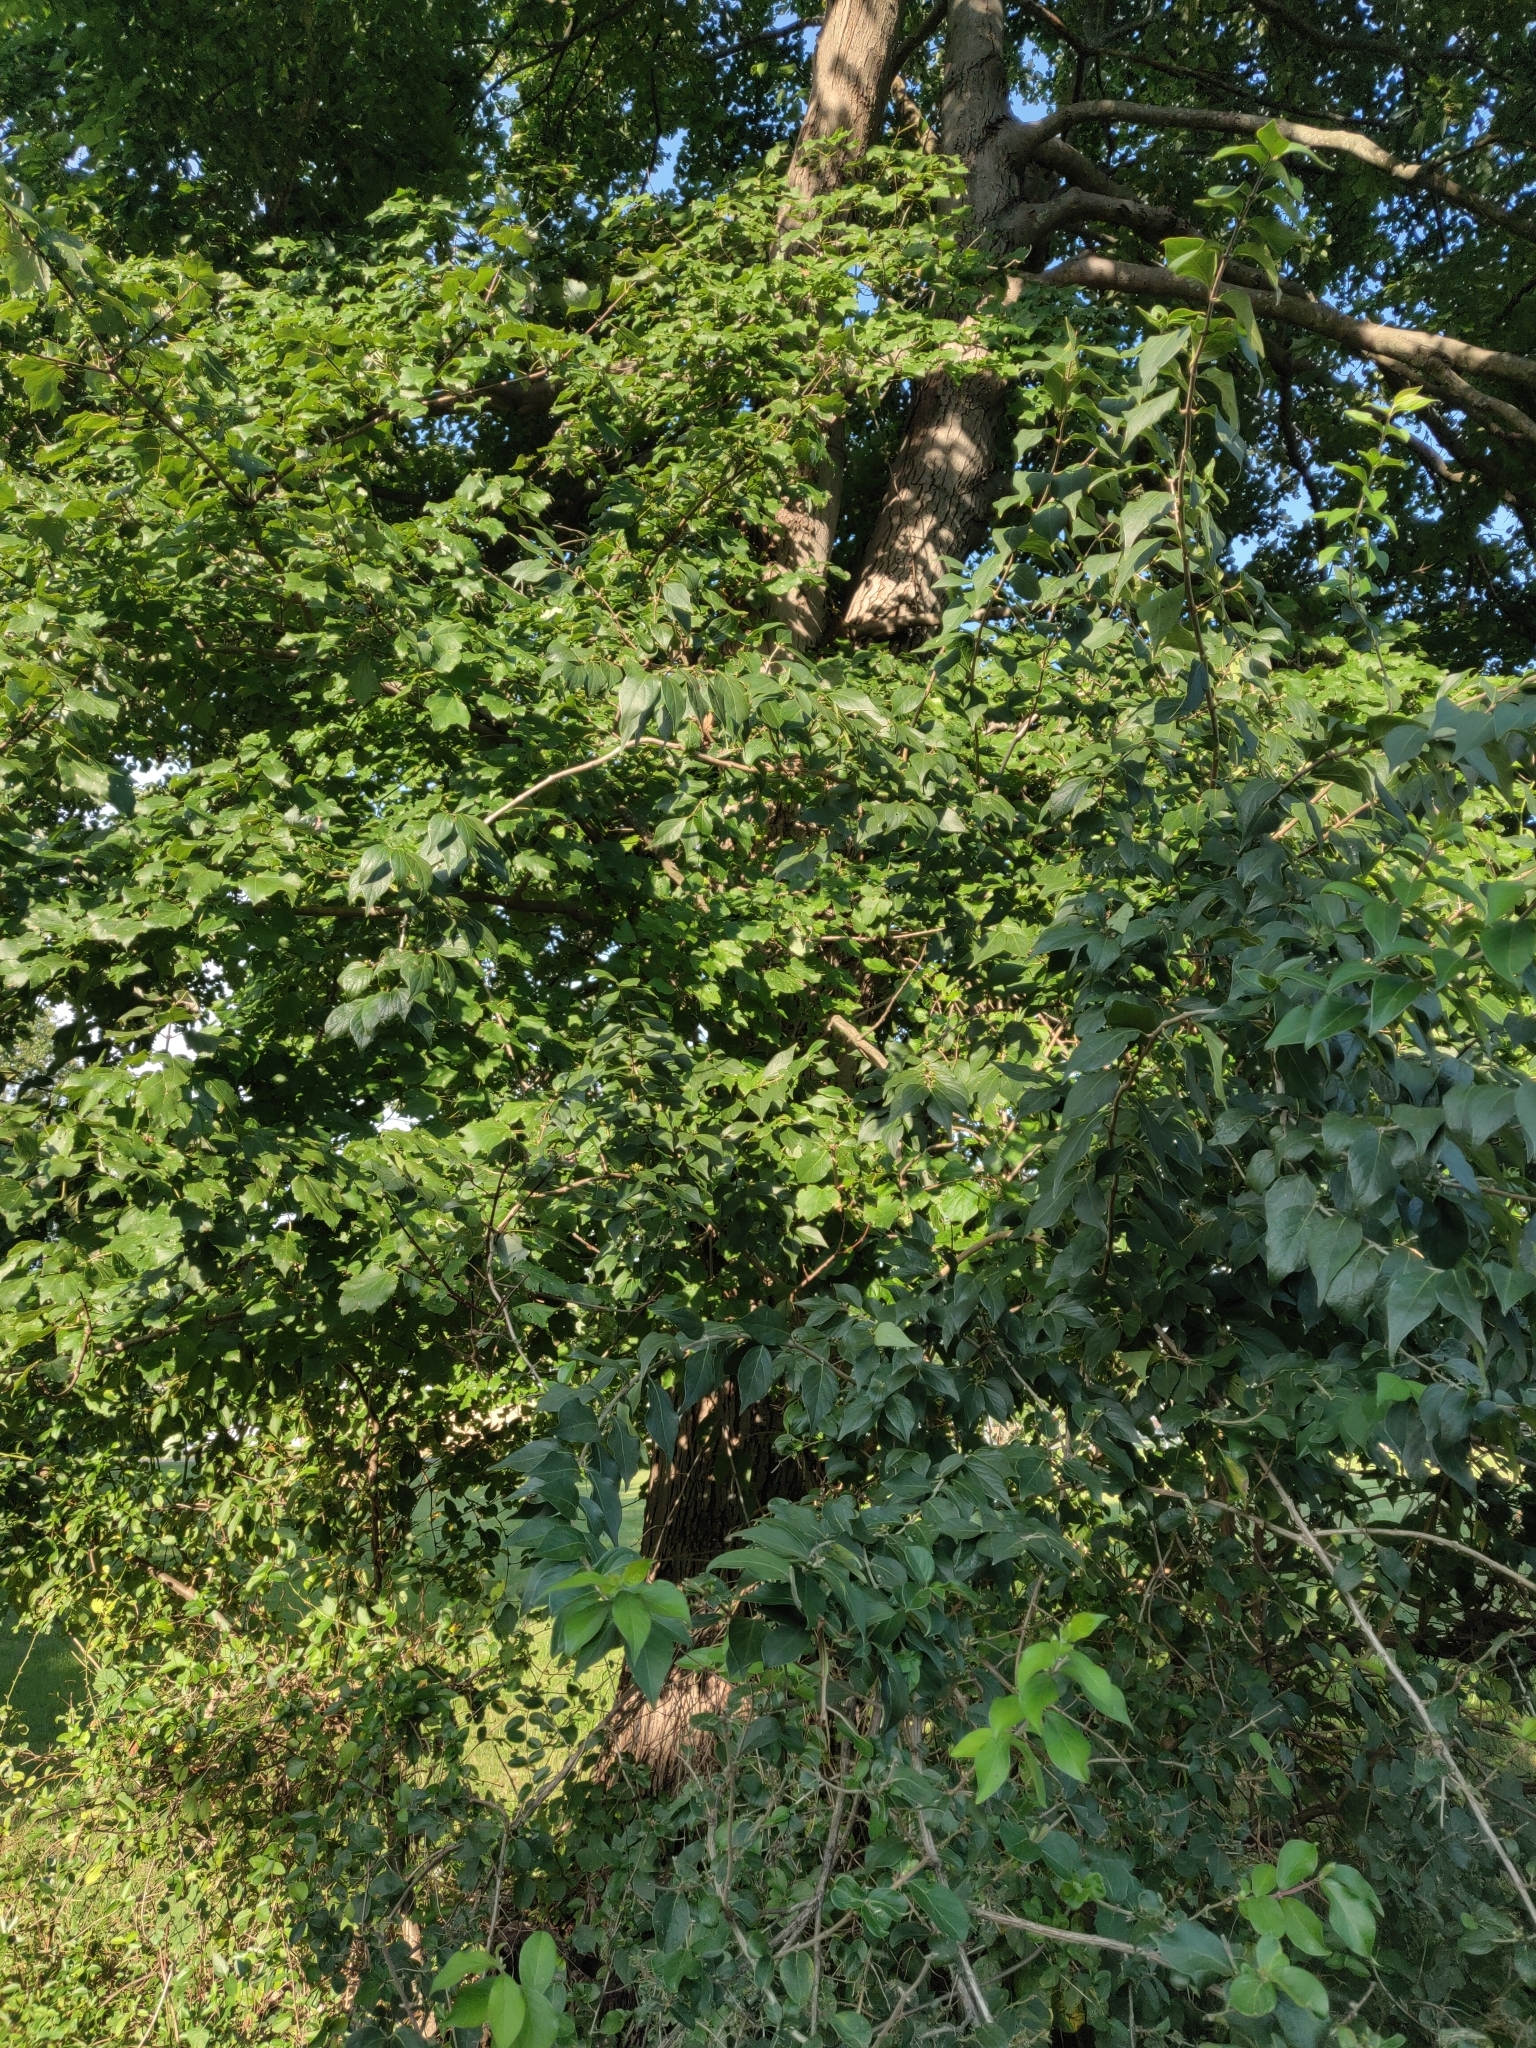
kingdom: Plantae
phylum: Tracheophyta
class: Magnoliopsida
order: Dipsacales
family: Caprifoliaceae
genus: Lonicera
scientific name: Lonicera maackii
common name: Amur honeysuckle
